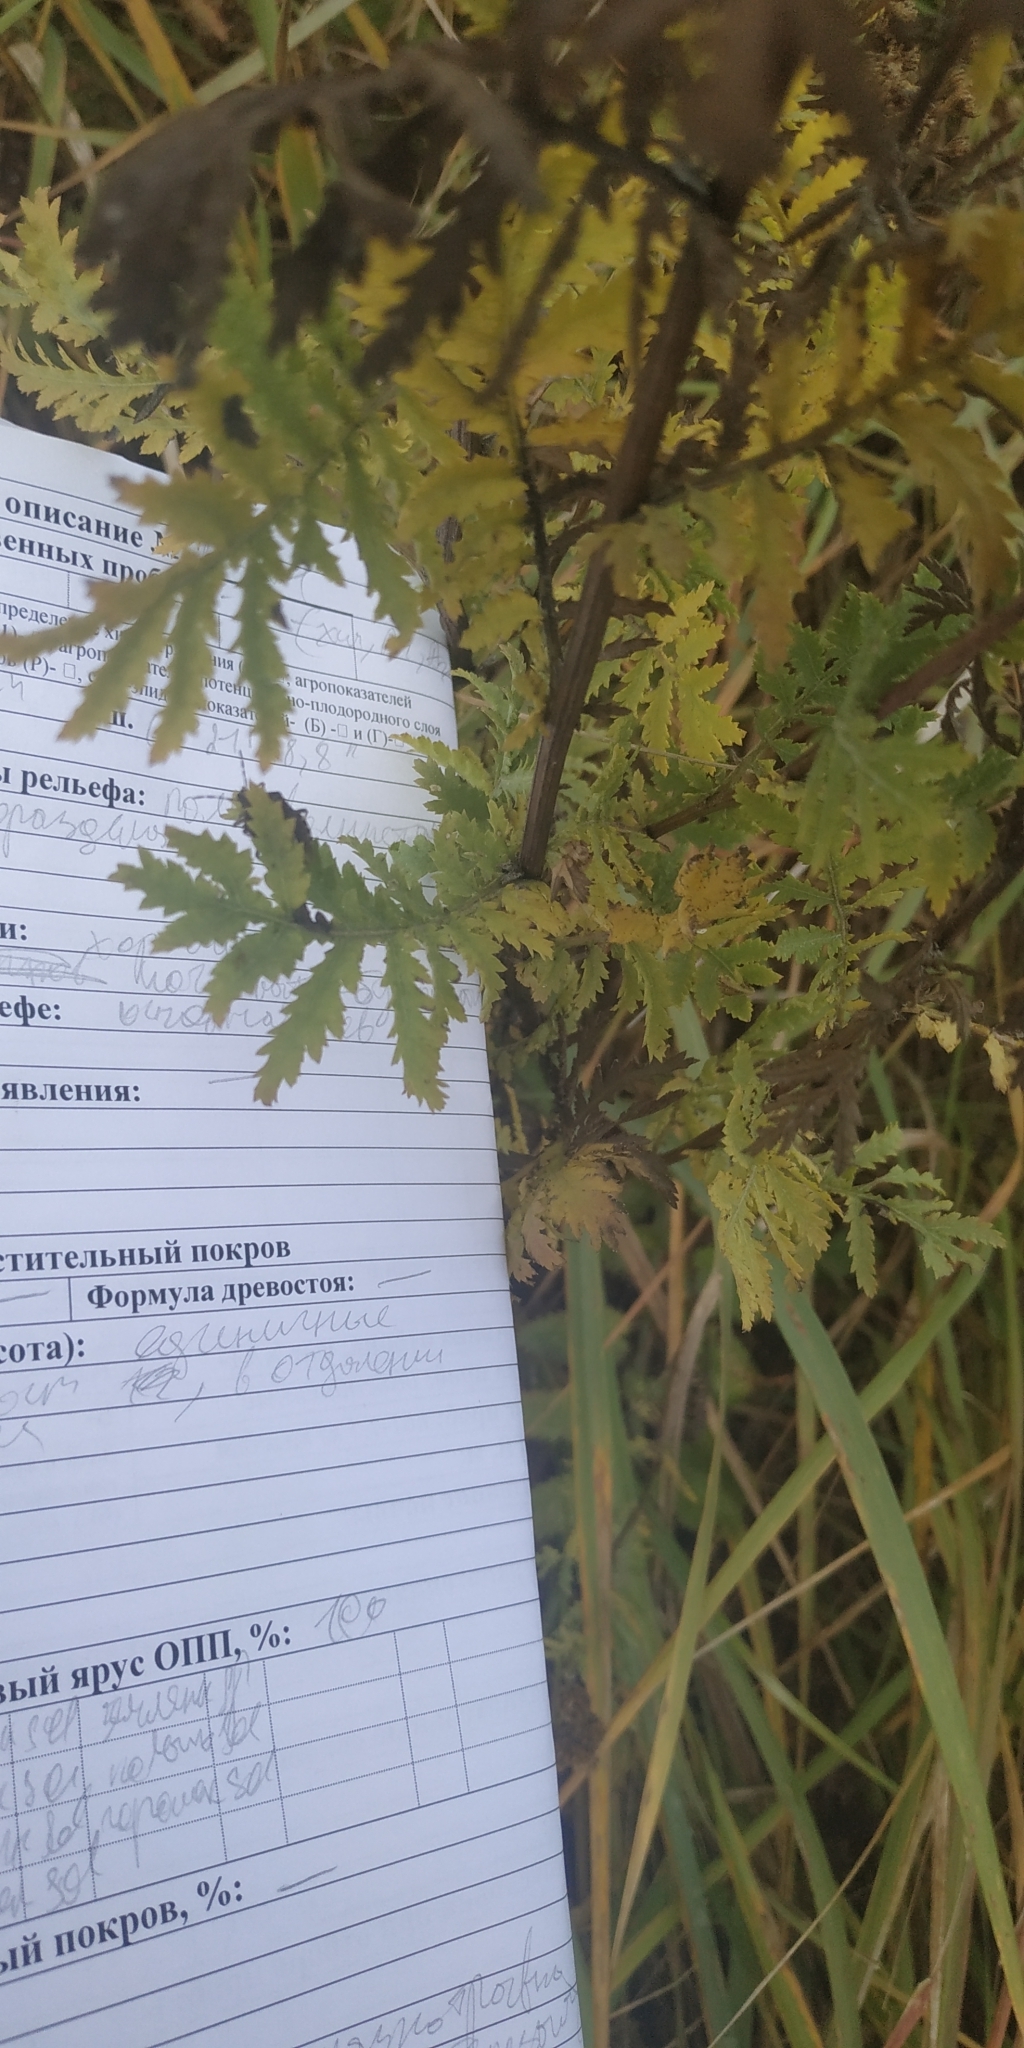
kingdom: Plantae
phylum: Tracheophyta
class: Magnoliopsida
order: Asterales
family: Asteraceae
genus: Tanacetum
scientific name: Tanacetum vulgare
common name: Common tansy
